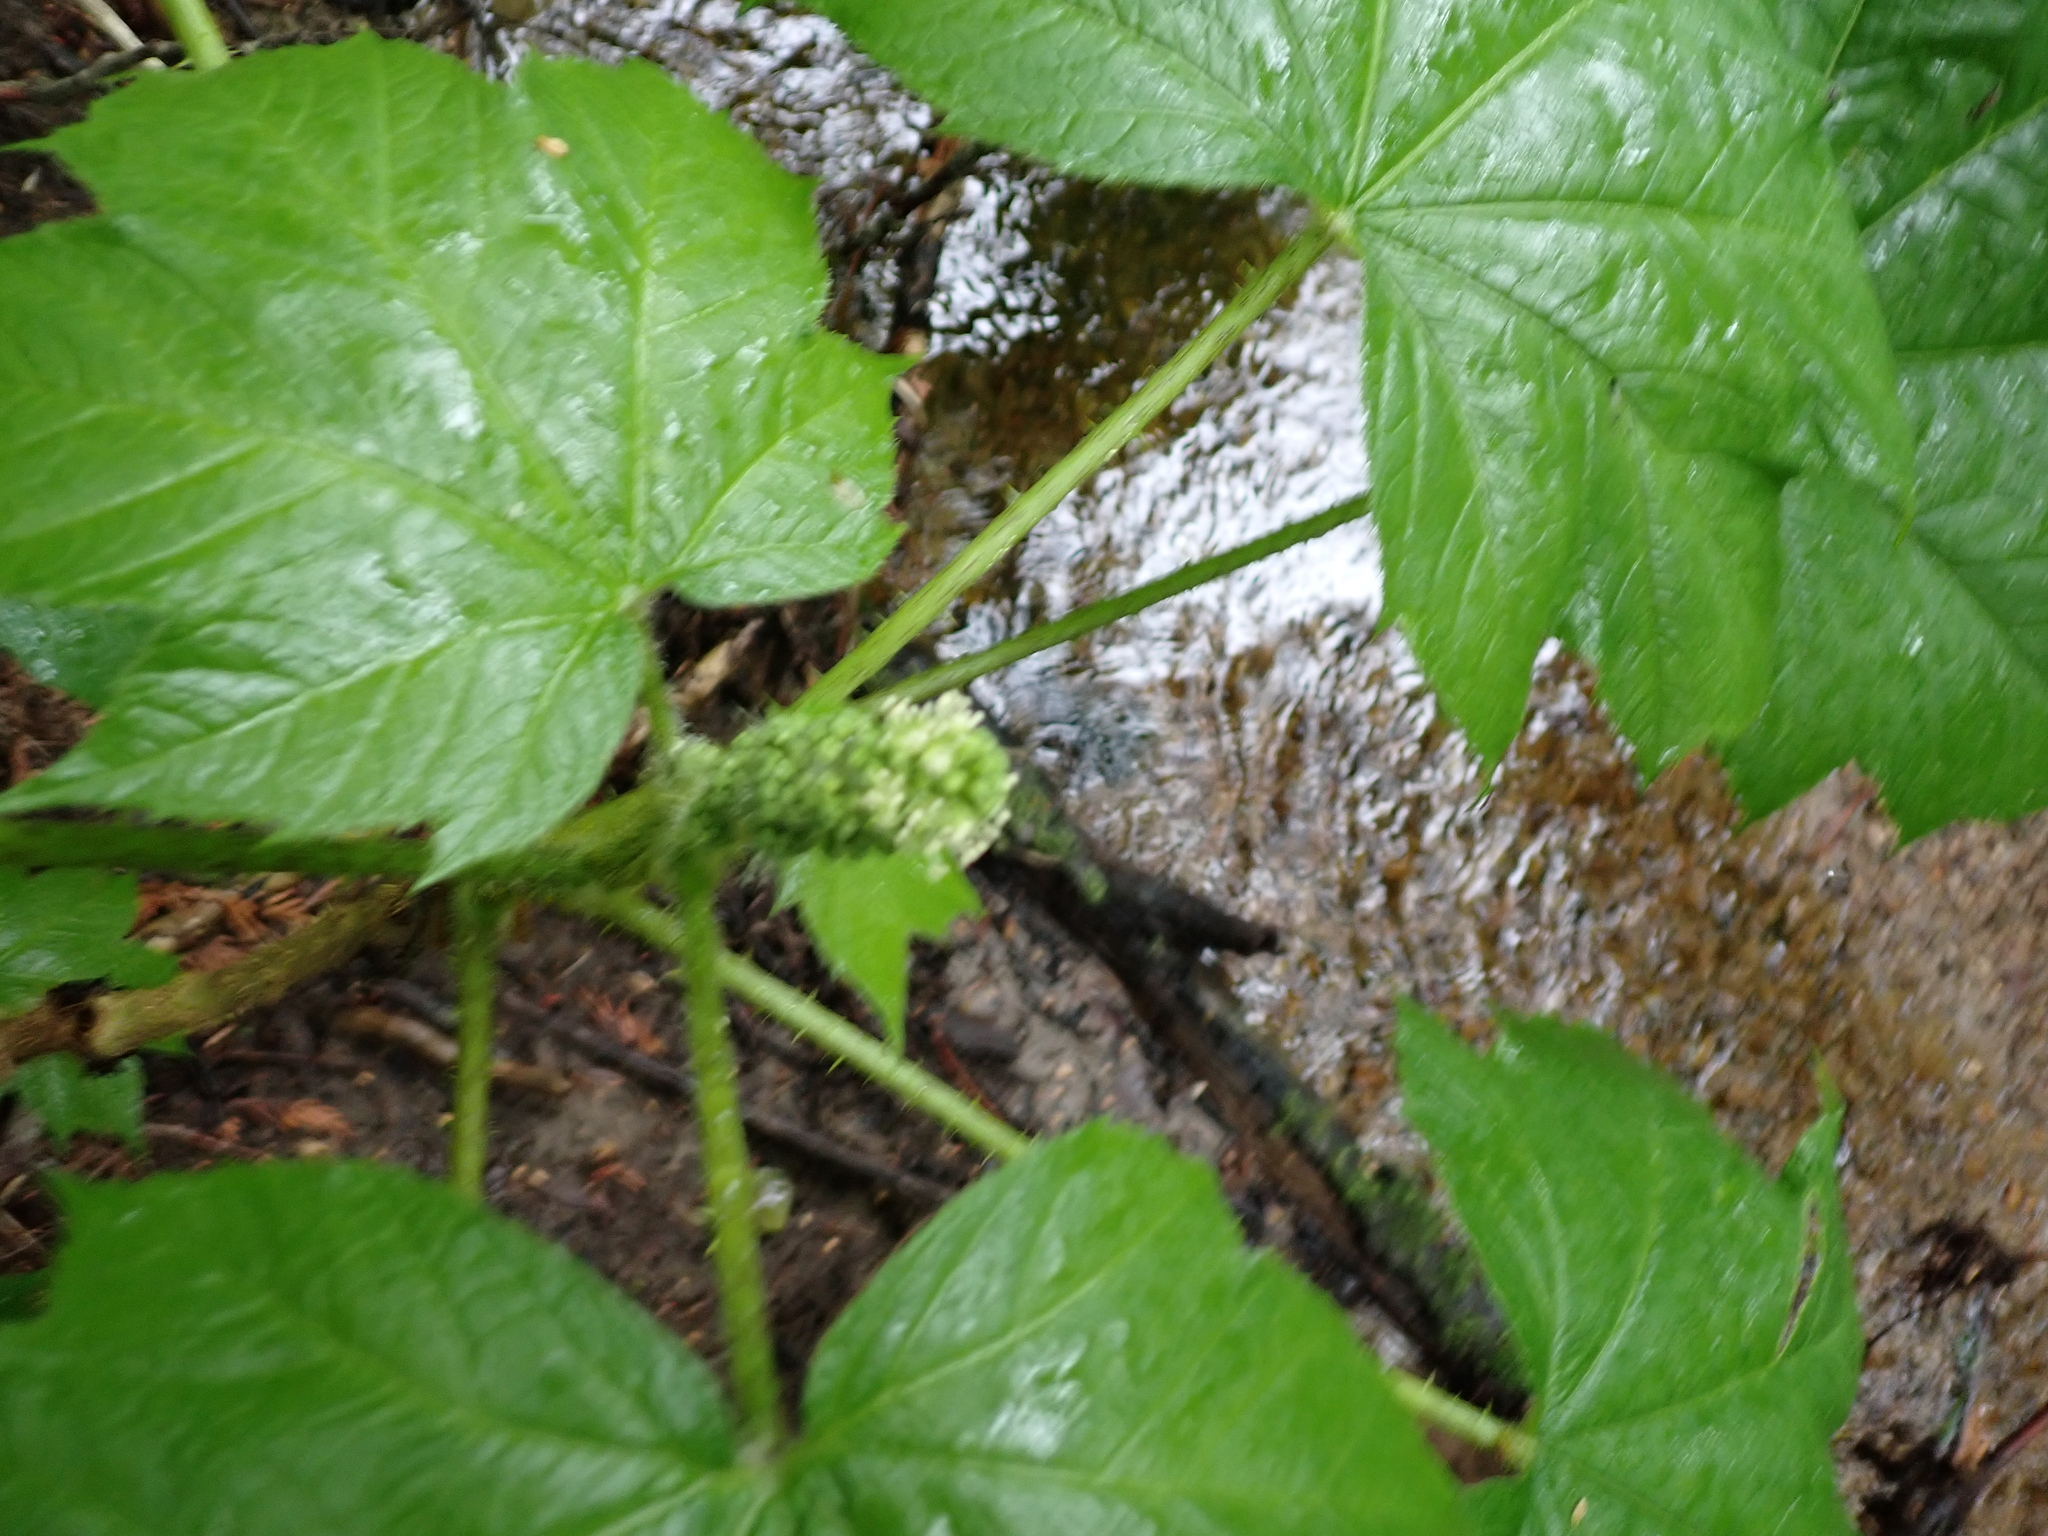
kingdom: Plantae
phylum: Tracheophyta
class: Magnoliopsida
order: Apiales
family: Araliaceae
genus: Oplopanax
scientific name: Oplopanax horridus
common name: Devil's walking-stick
